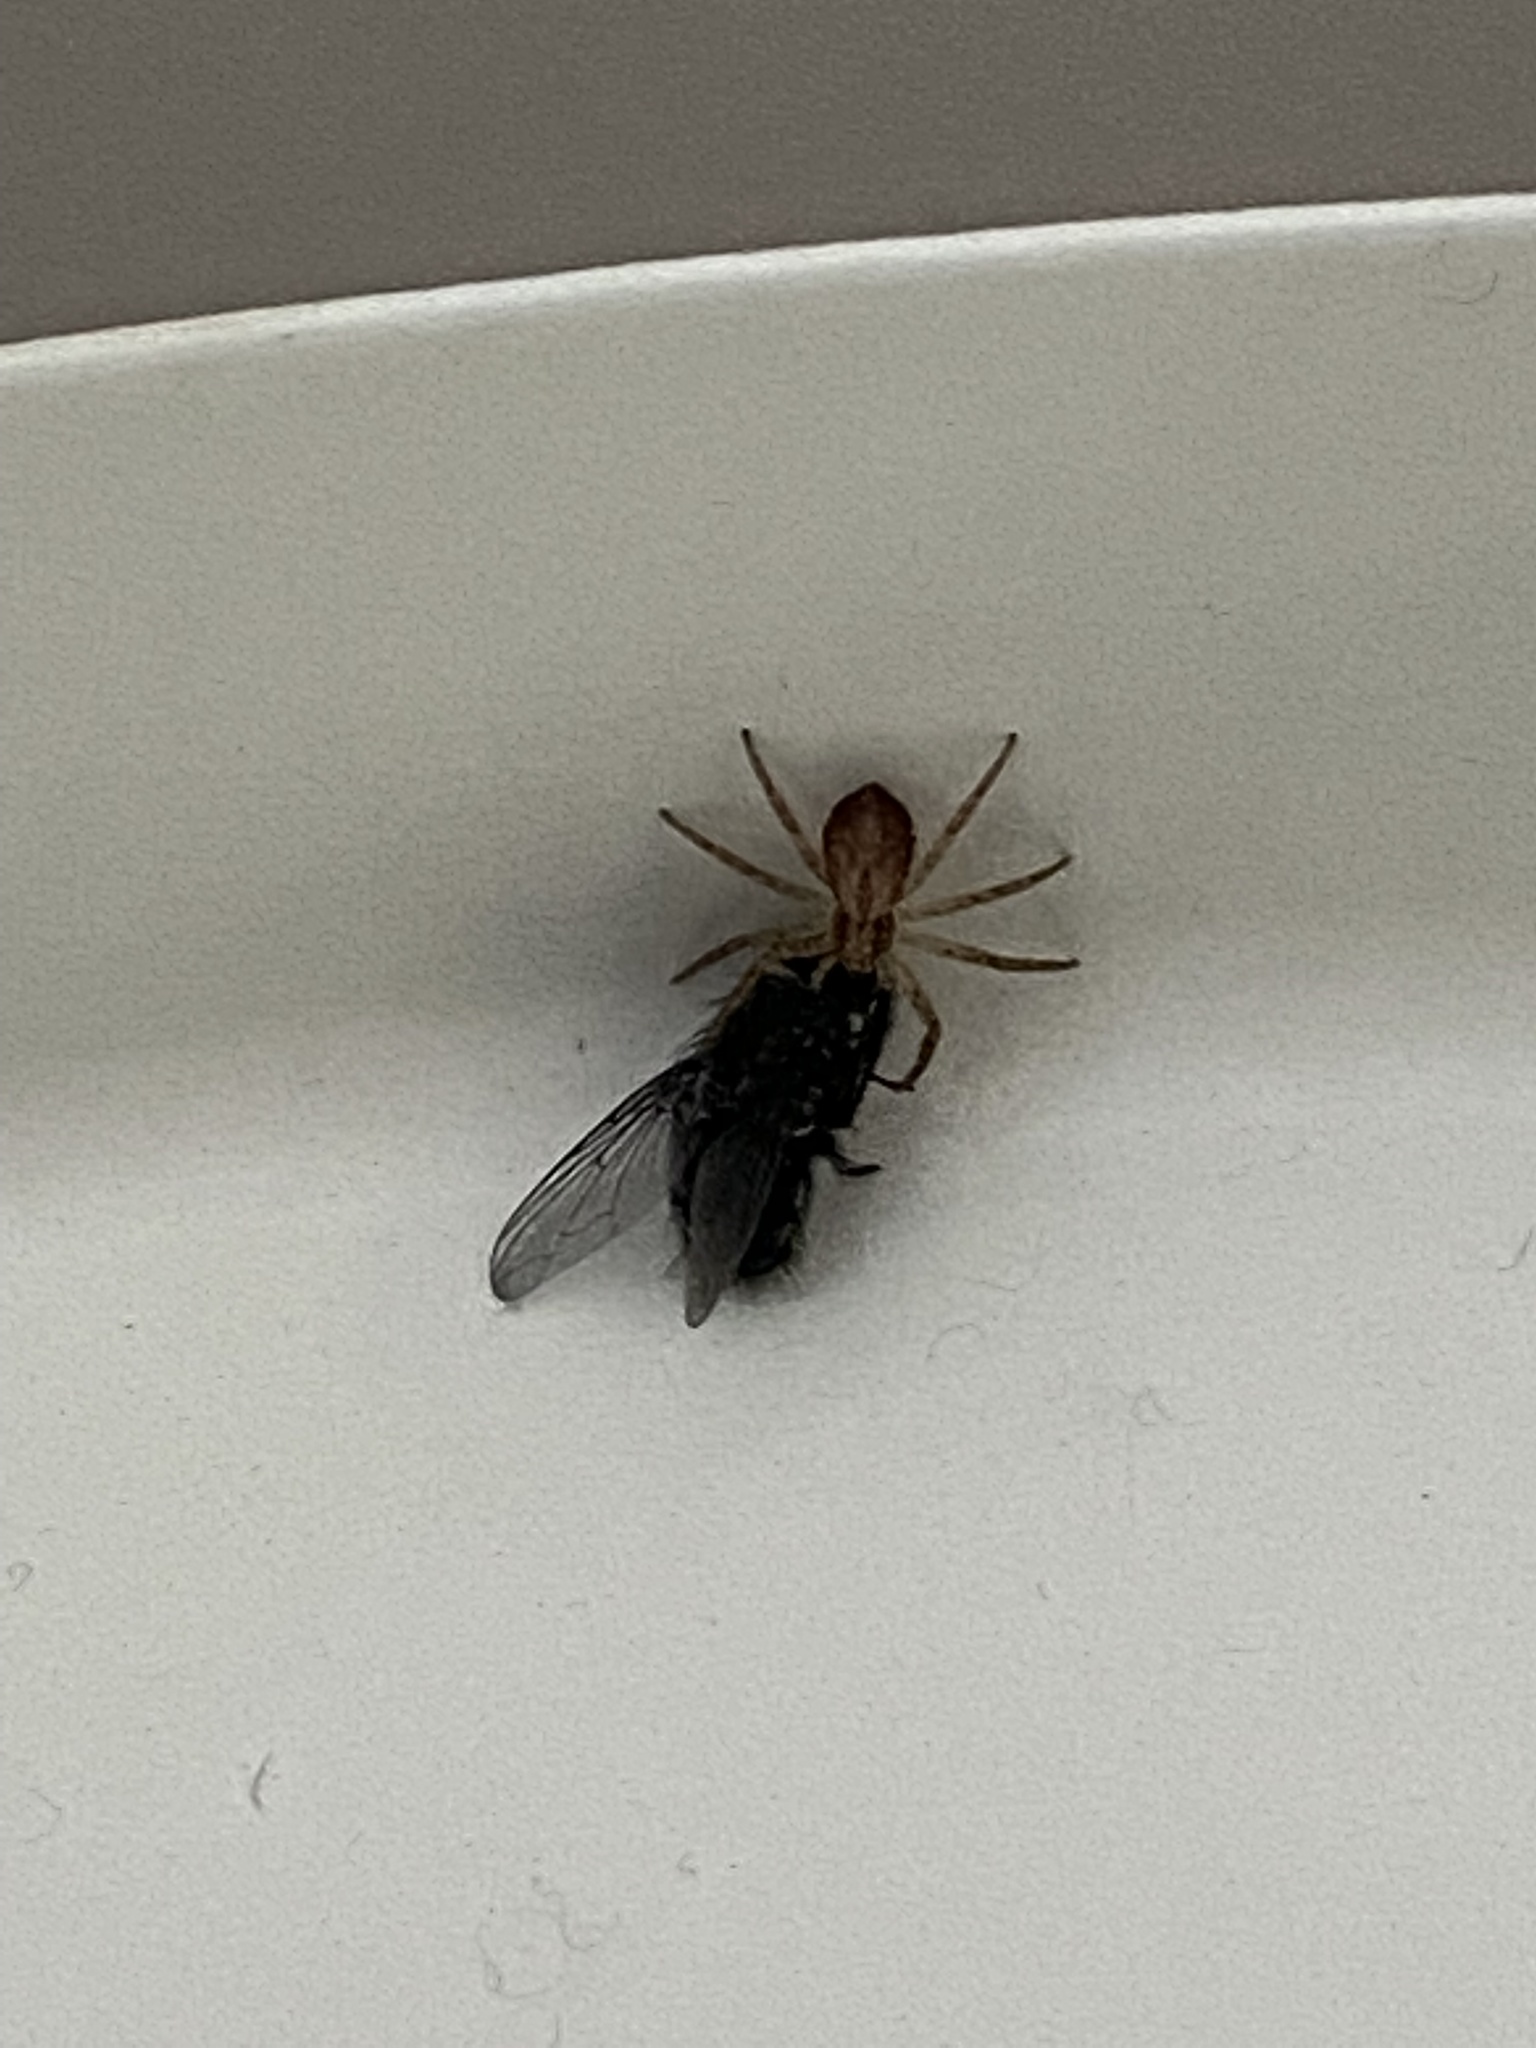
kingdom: Animalia
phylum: Arthropoda
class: Arachnida
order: Araneae
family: Philodromidae
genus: Philodromus
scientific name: Philodromus dispar
